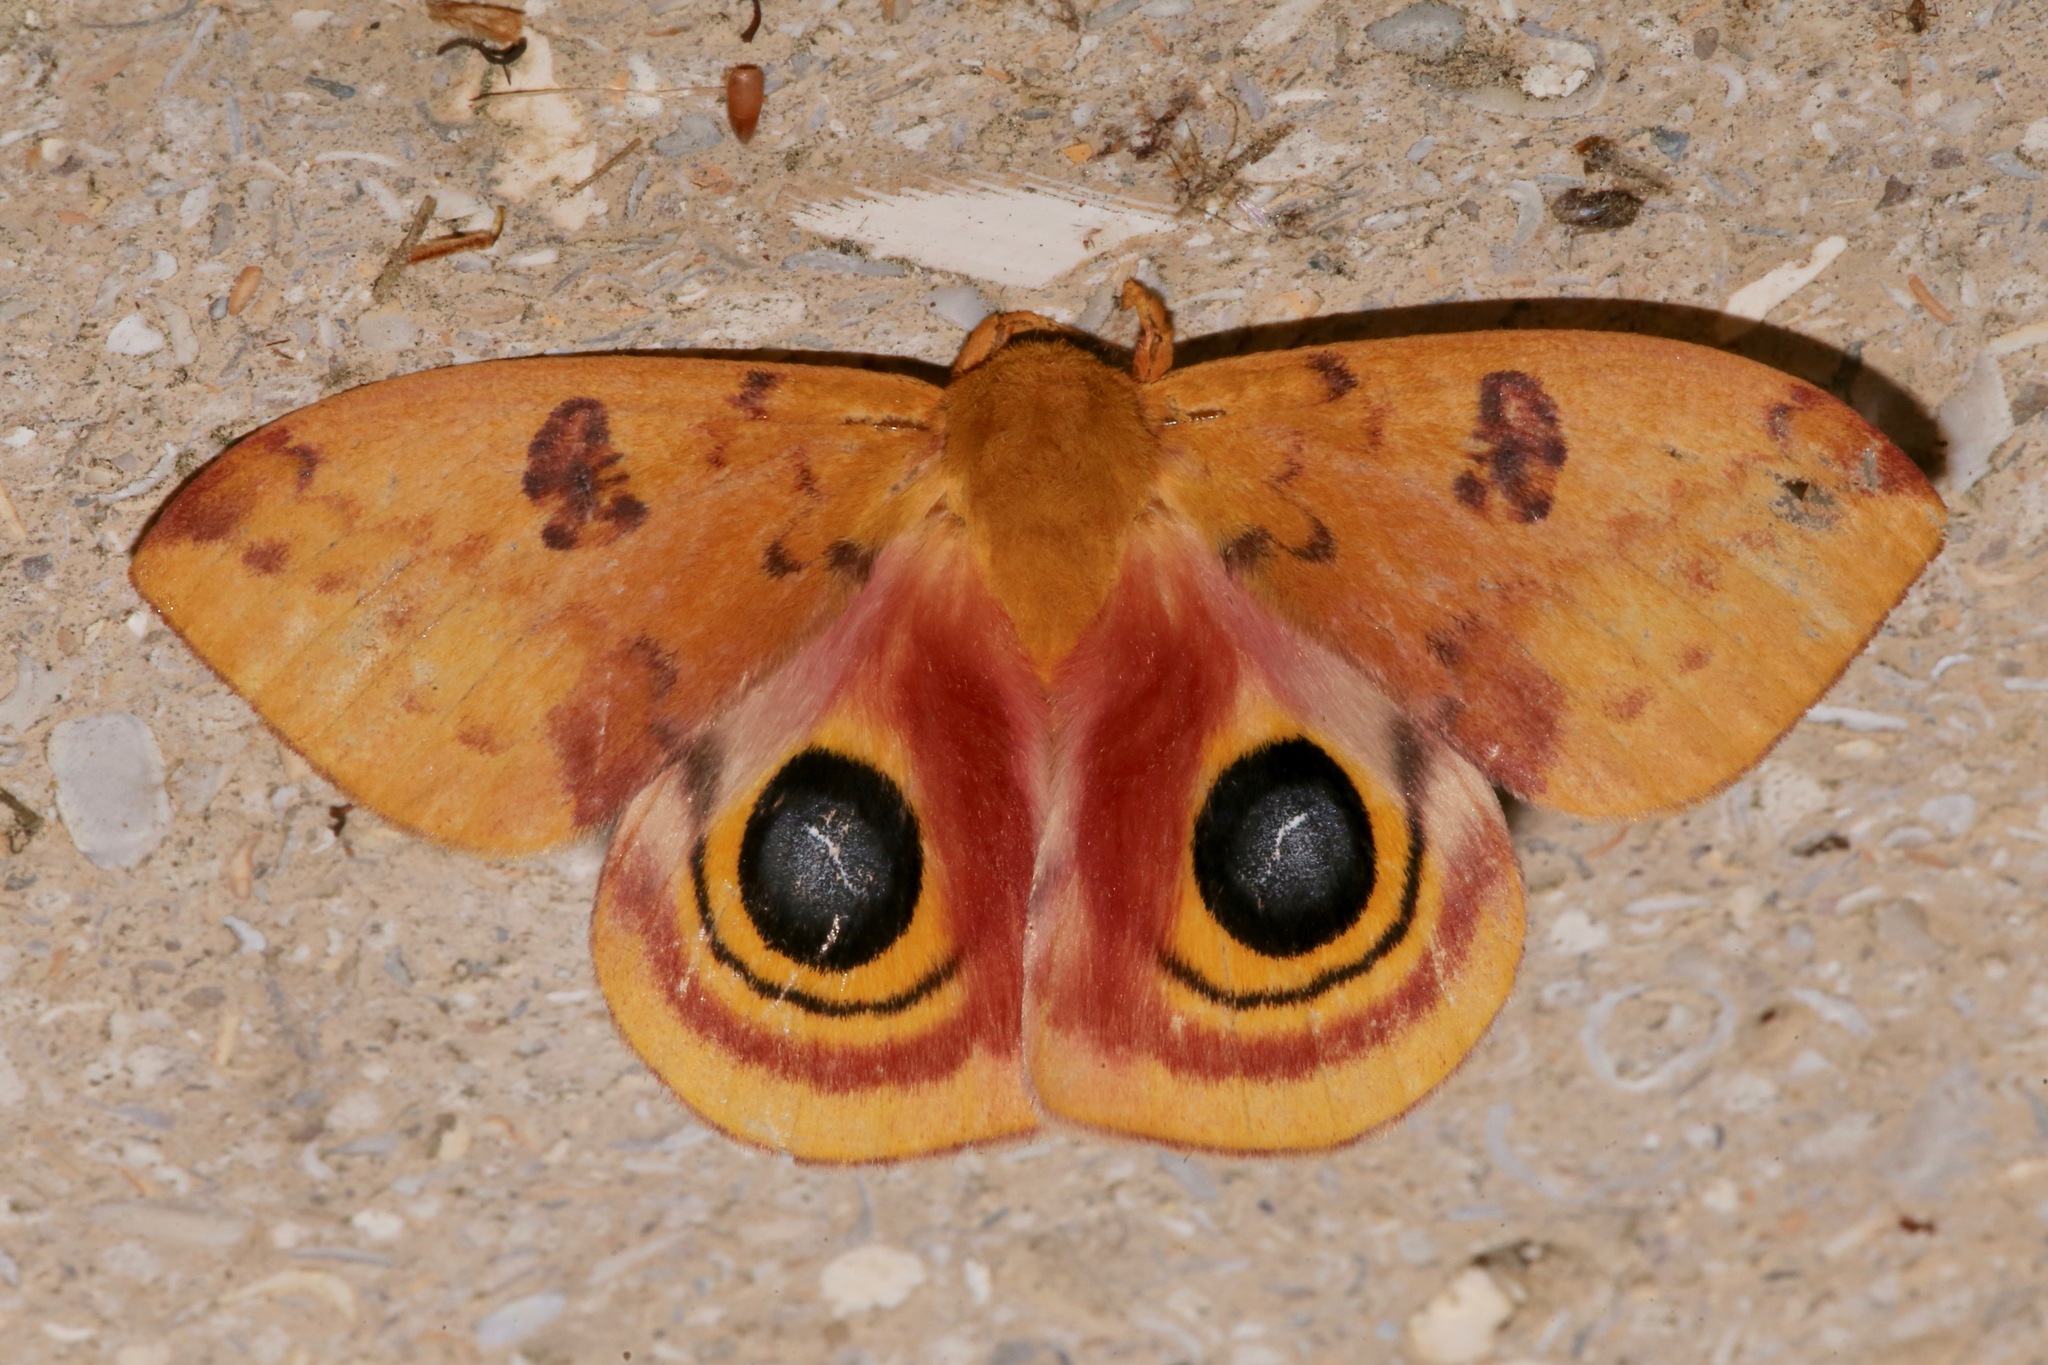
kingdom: Animalia
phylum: Arthropoda
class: Insecta
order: Lepidoptera
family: Saturniidae
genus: Automeris
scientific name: Automeris io
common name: Io moth
